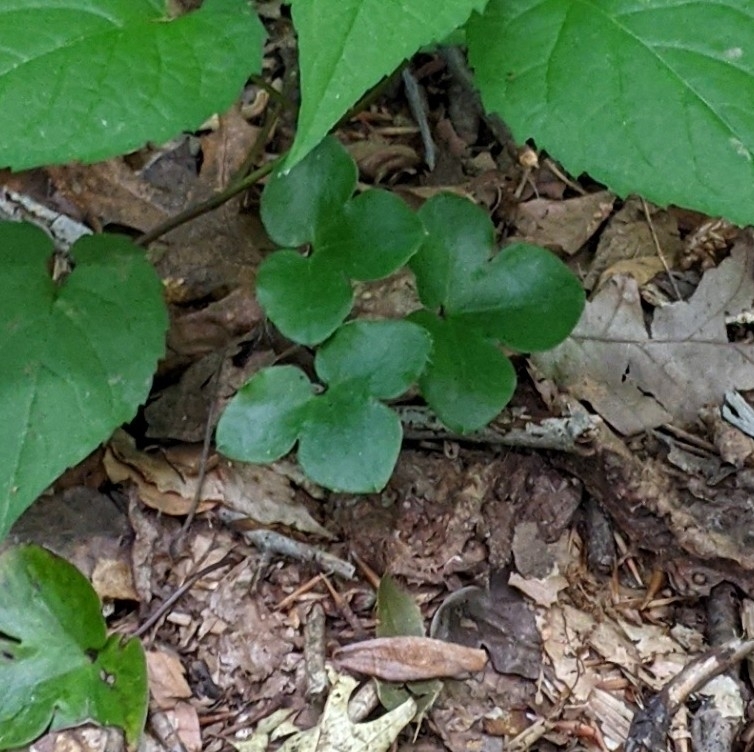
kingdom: Plantae
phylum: Tracheophyta
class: Magnoliopsida
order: Ranunculales
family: Ranunculaceae
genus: Hepatica
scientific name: Hepatica americana
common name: American hepatica
